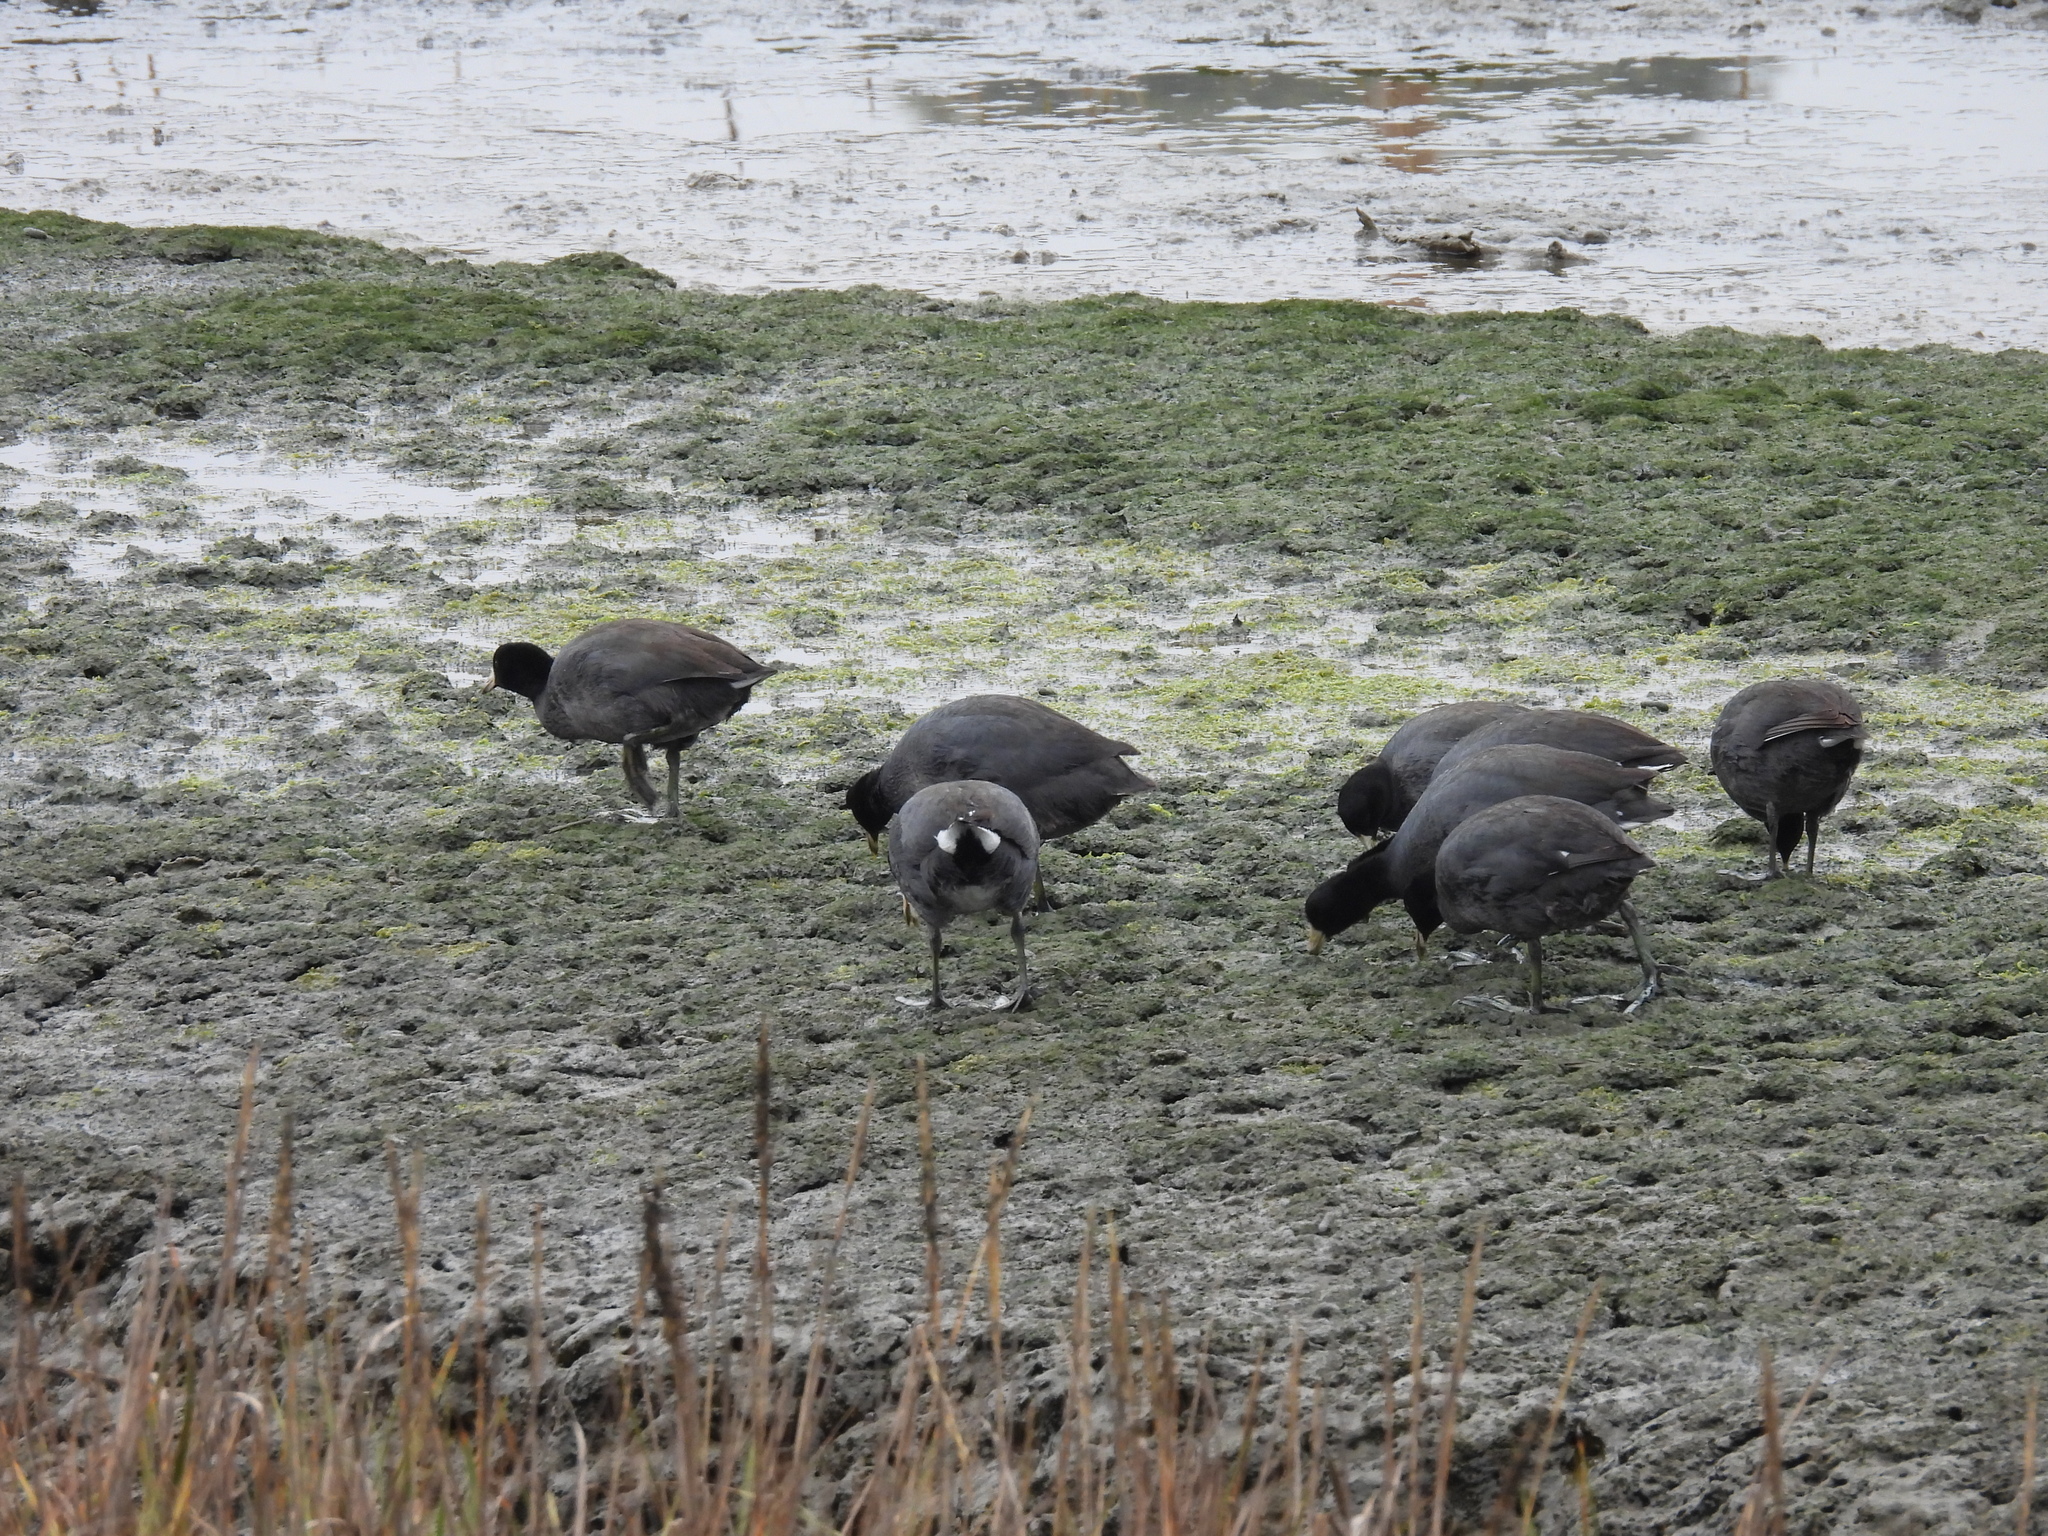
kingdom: Animalia
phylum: Chordata
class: Aves
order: Gruiformes
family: Rallidae
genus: Fulica
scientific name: Fulica americana
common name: American coot
